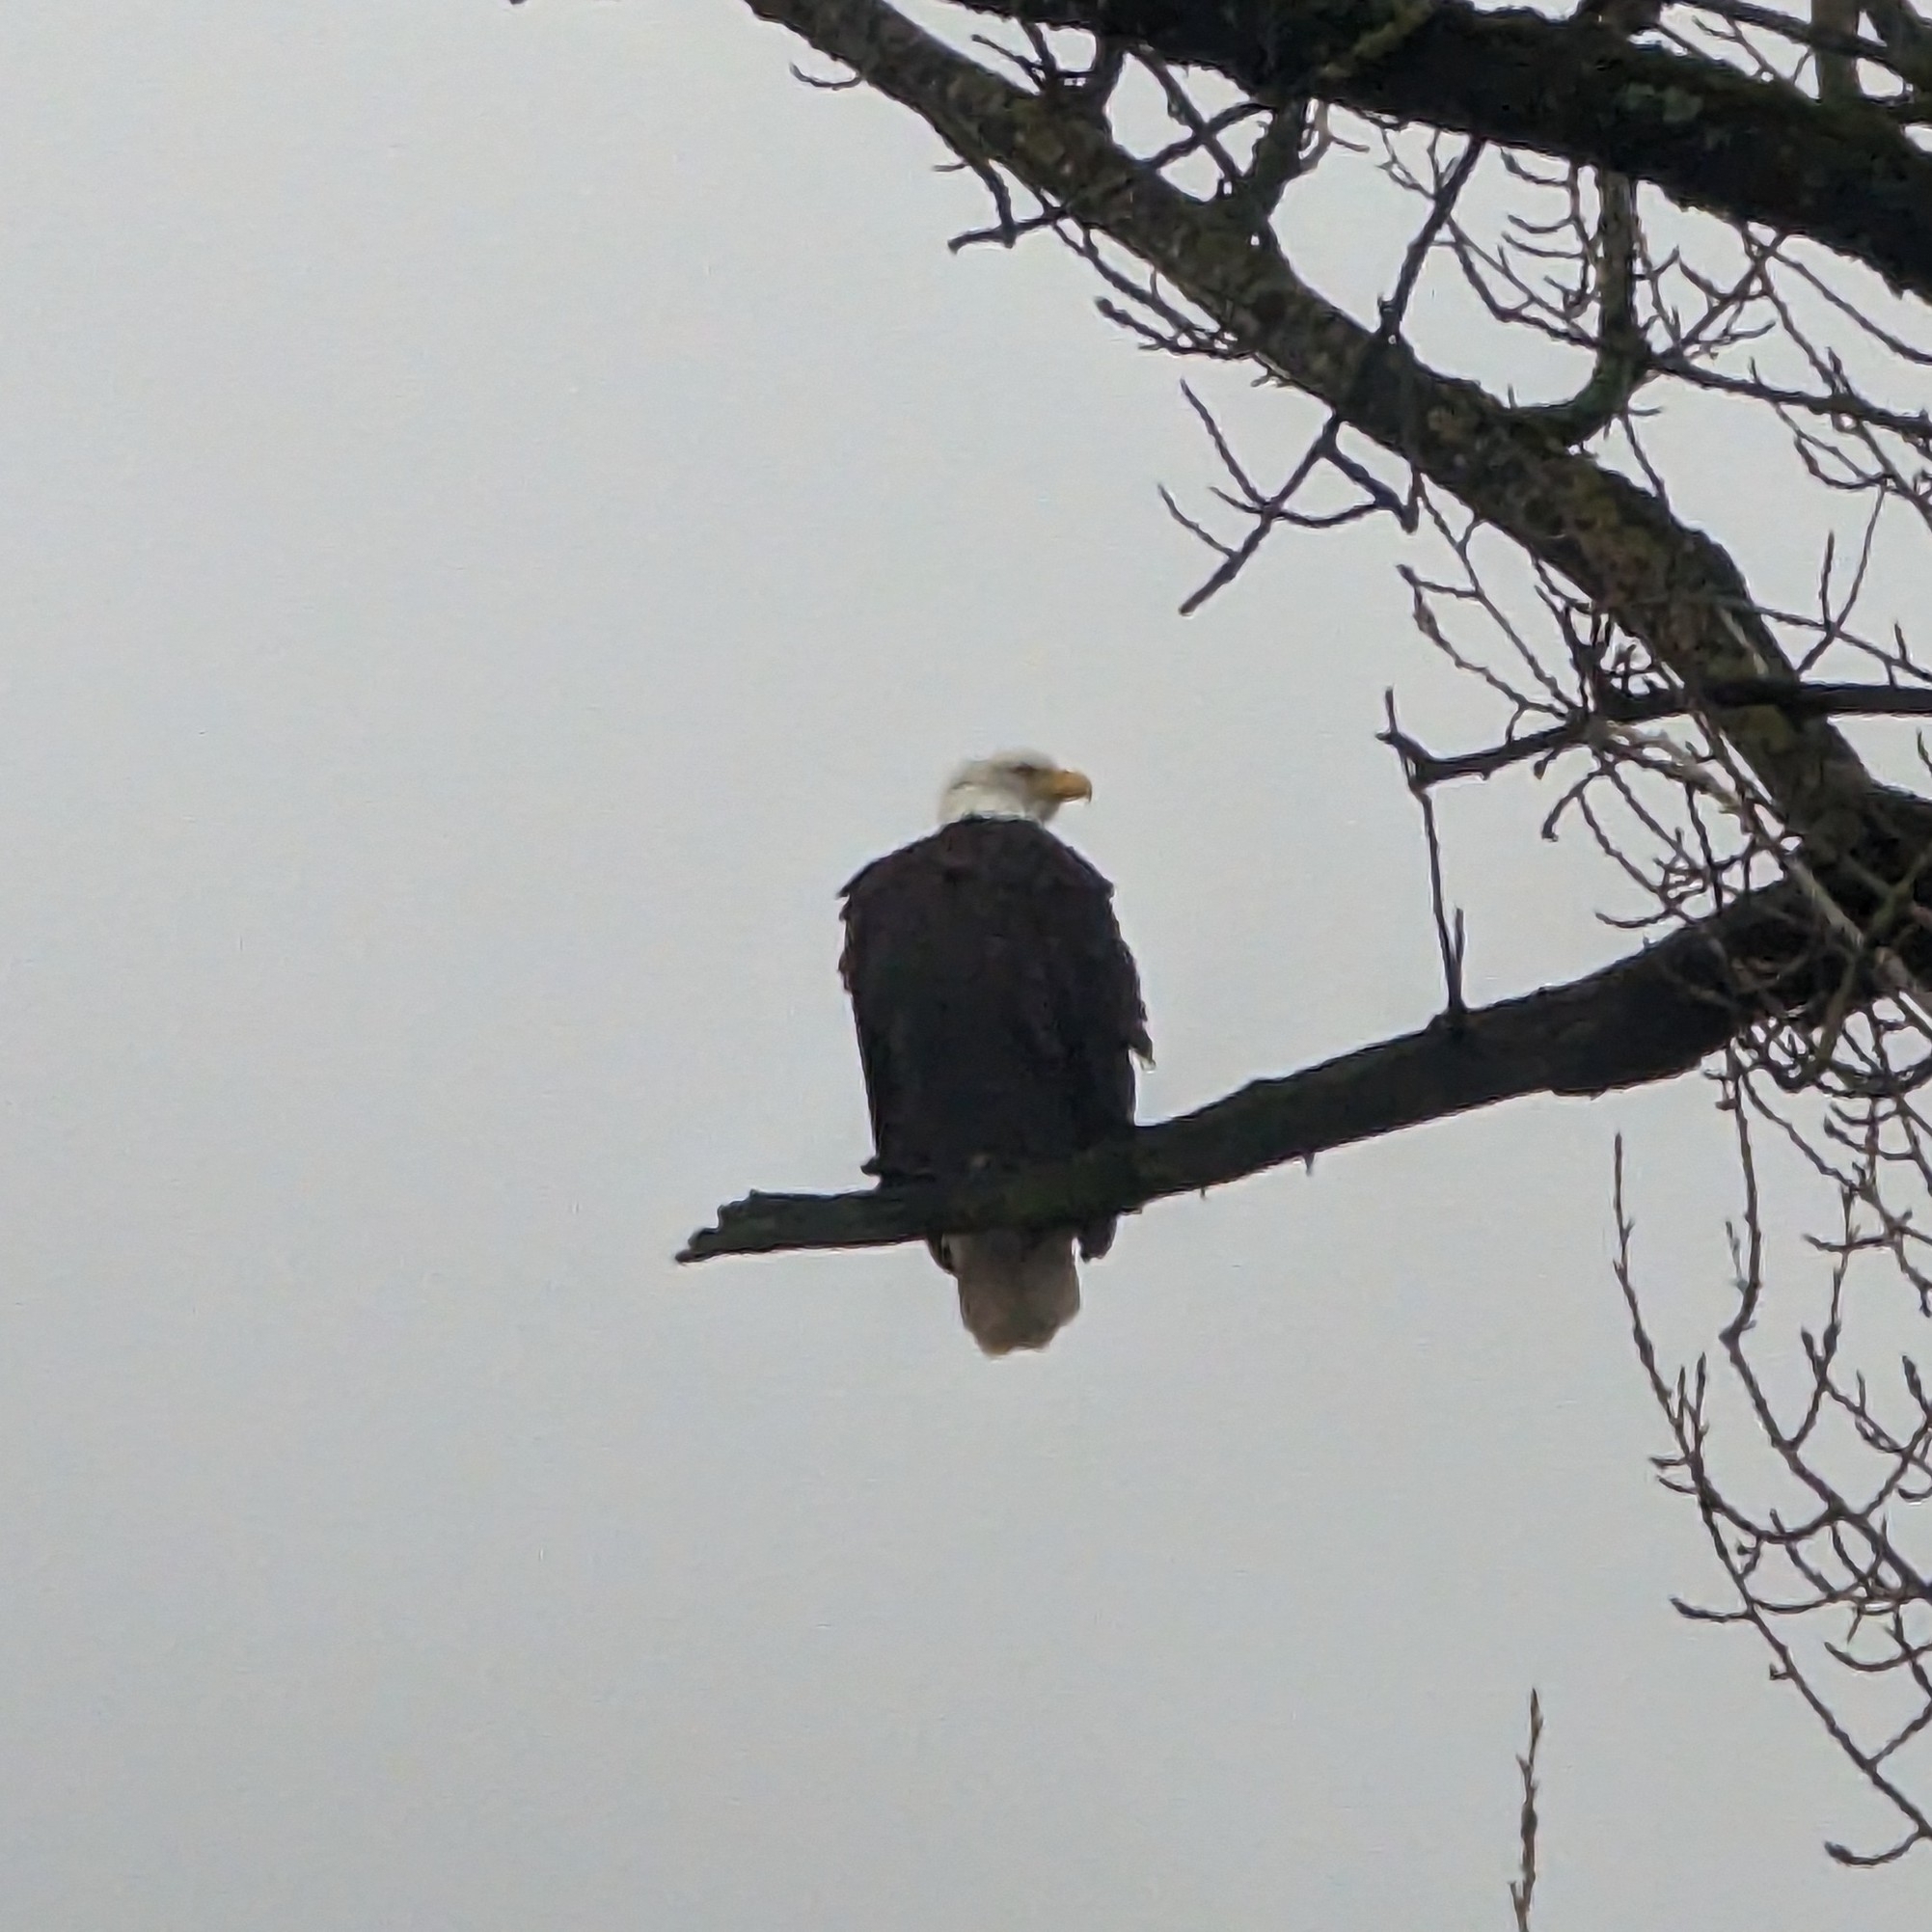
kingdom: Animalia
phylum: Chordata
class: Aves
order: Accipitriformes
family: Accipitridae
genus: Haliaeetus
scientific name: Haliaeetus leucocephalus
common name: Bald eagle
